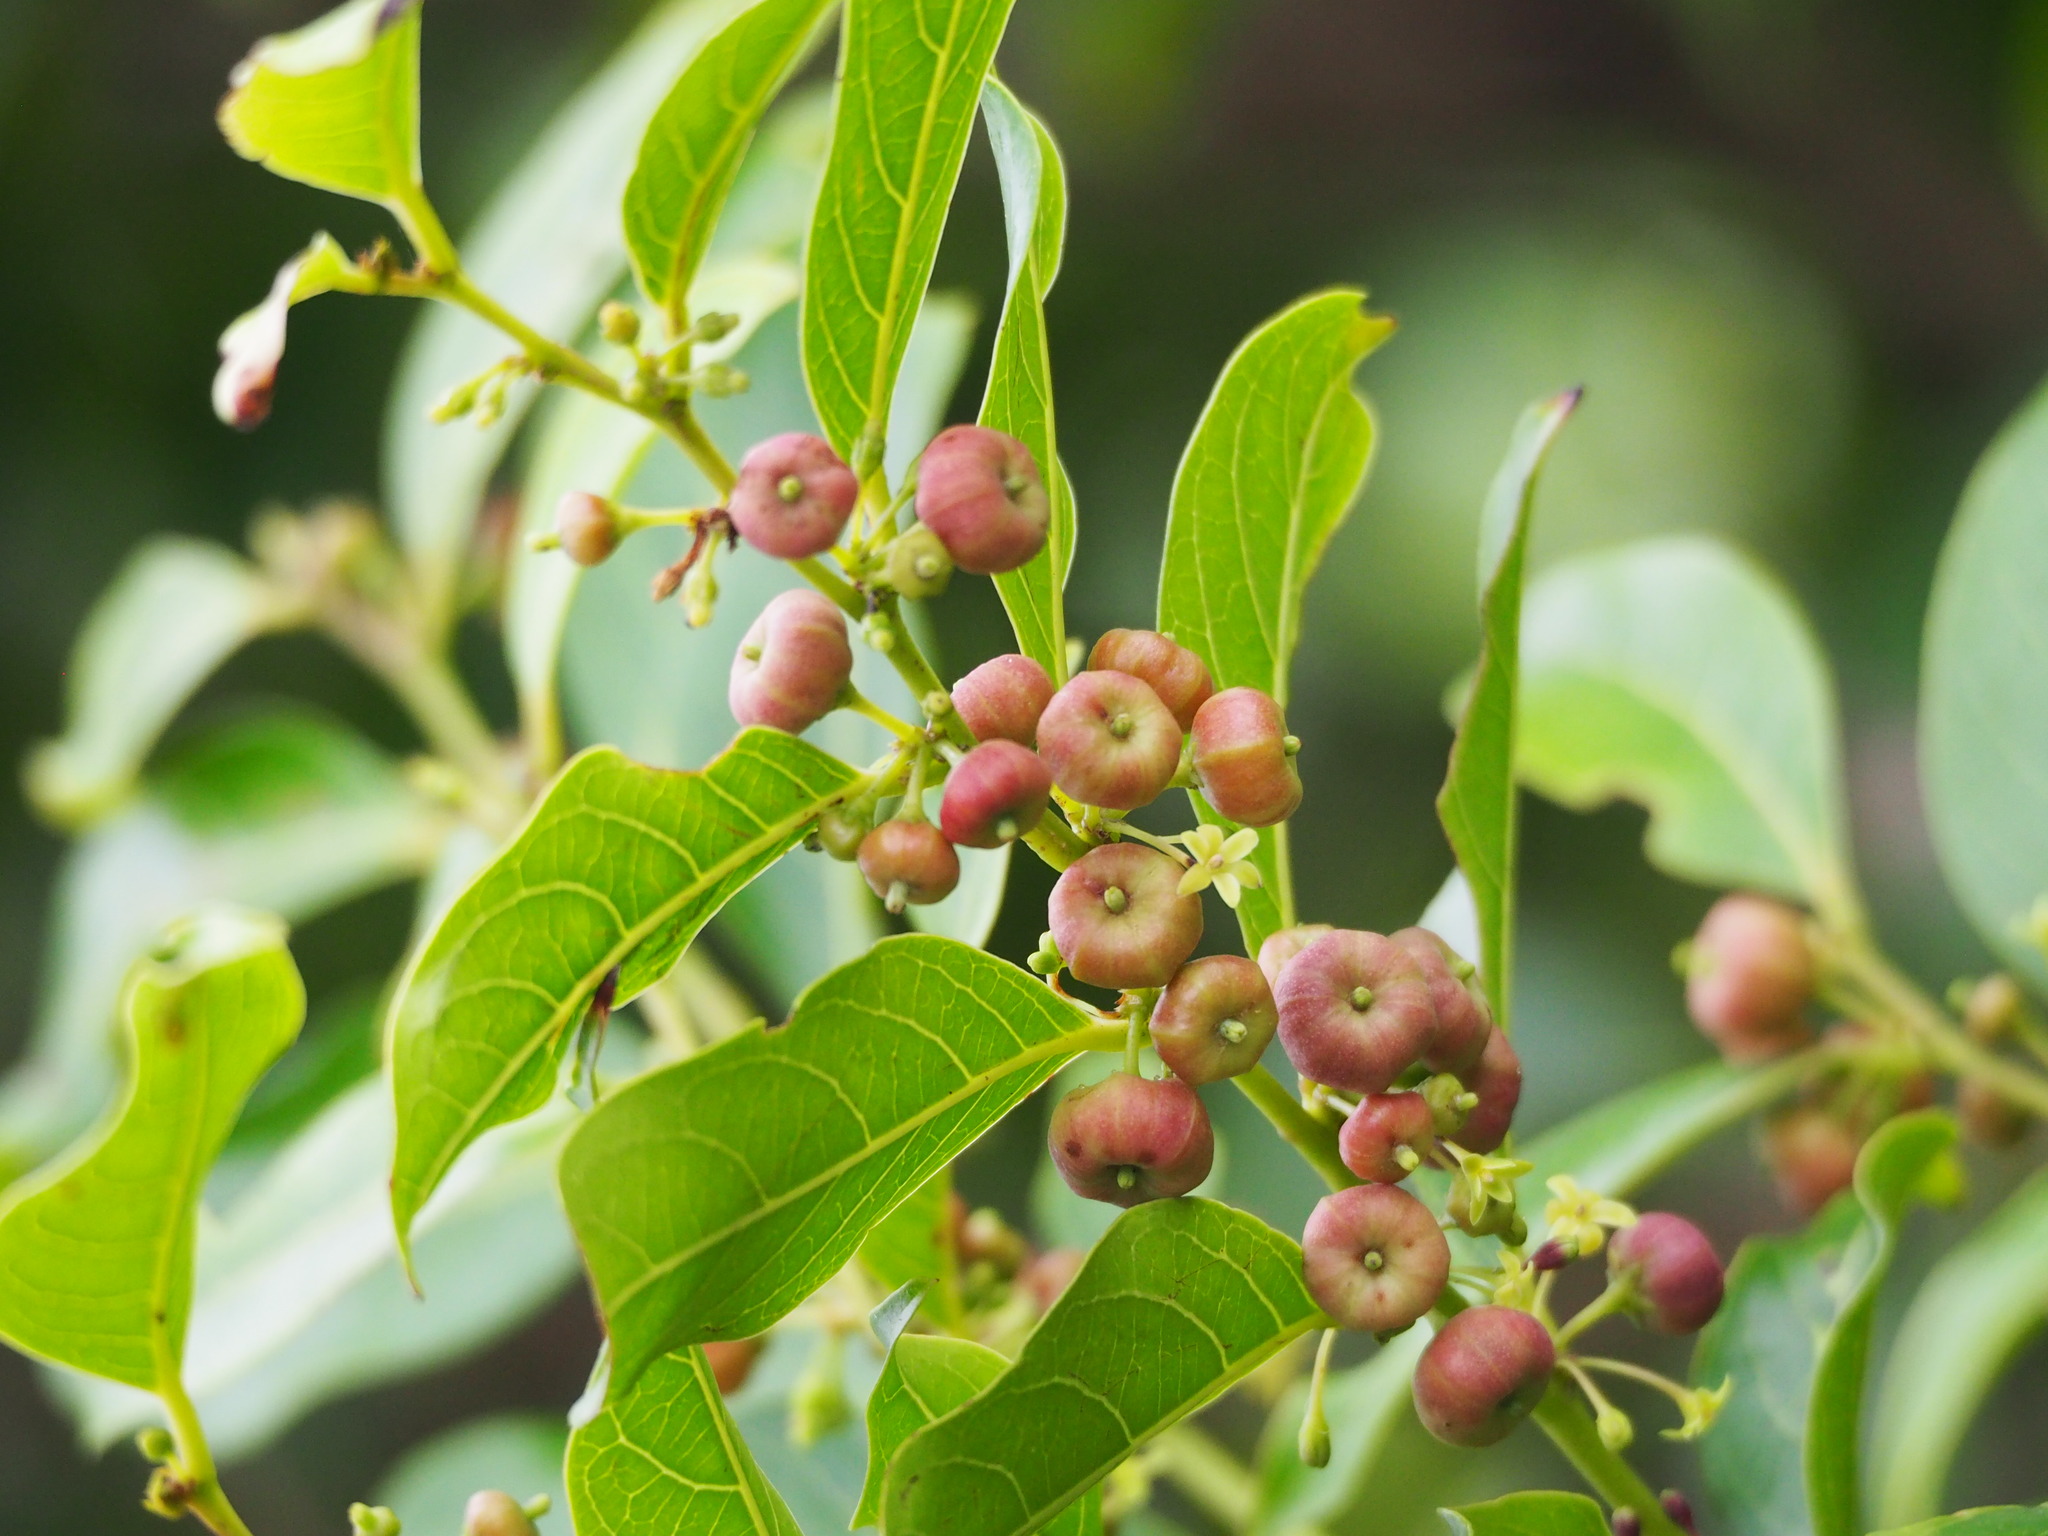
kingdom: Plantae
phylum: Tracheophyta
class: Magnoliopsida
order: Malpighiales
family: Phyllanthaceae
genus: Glochidion
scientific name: Glochidion rubrum
